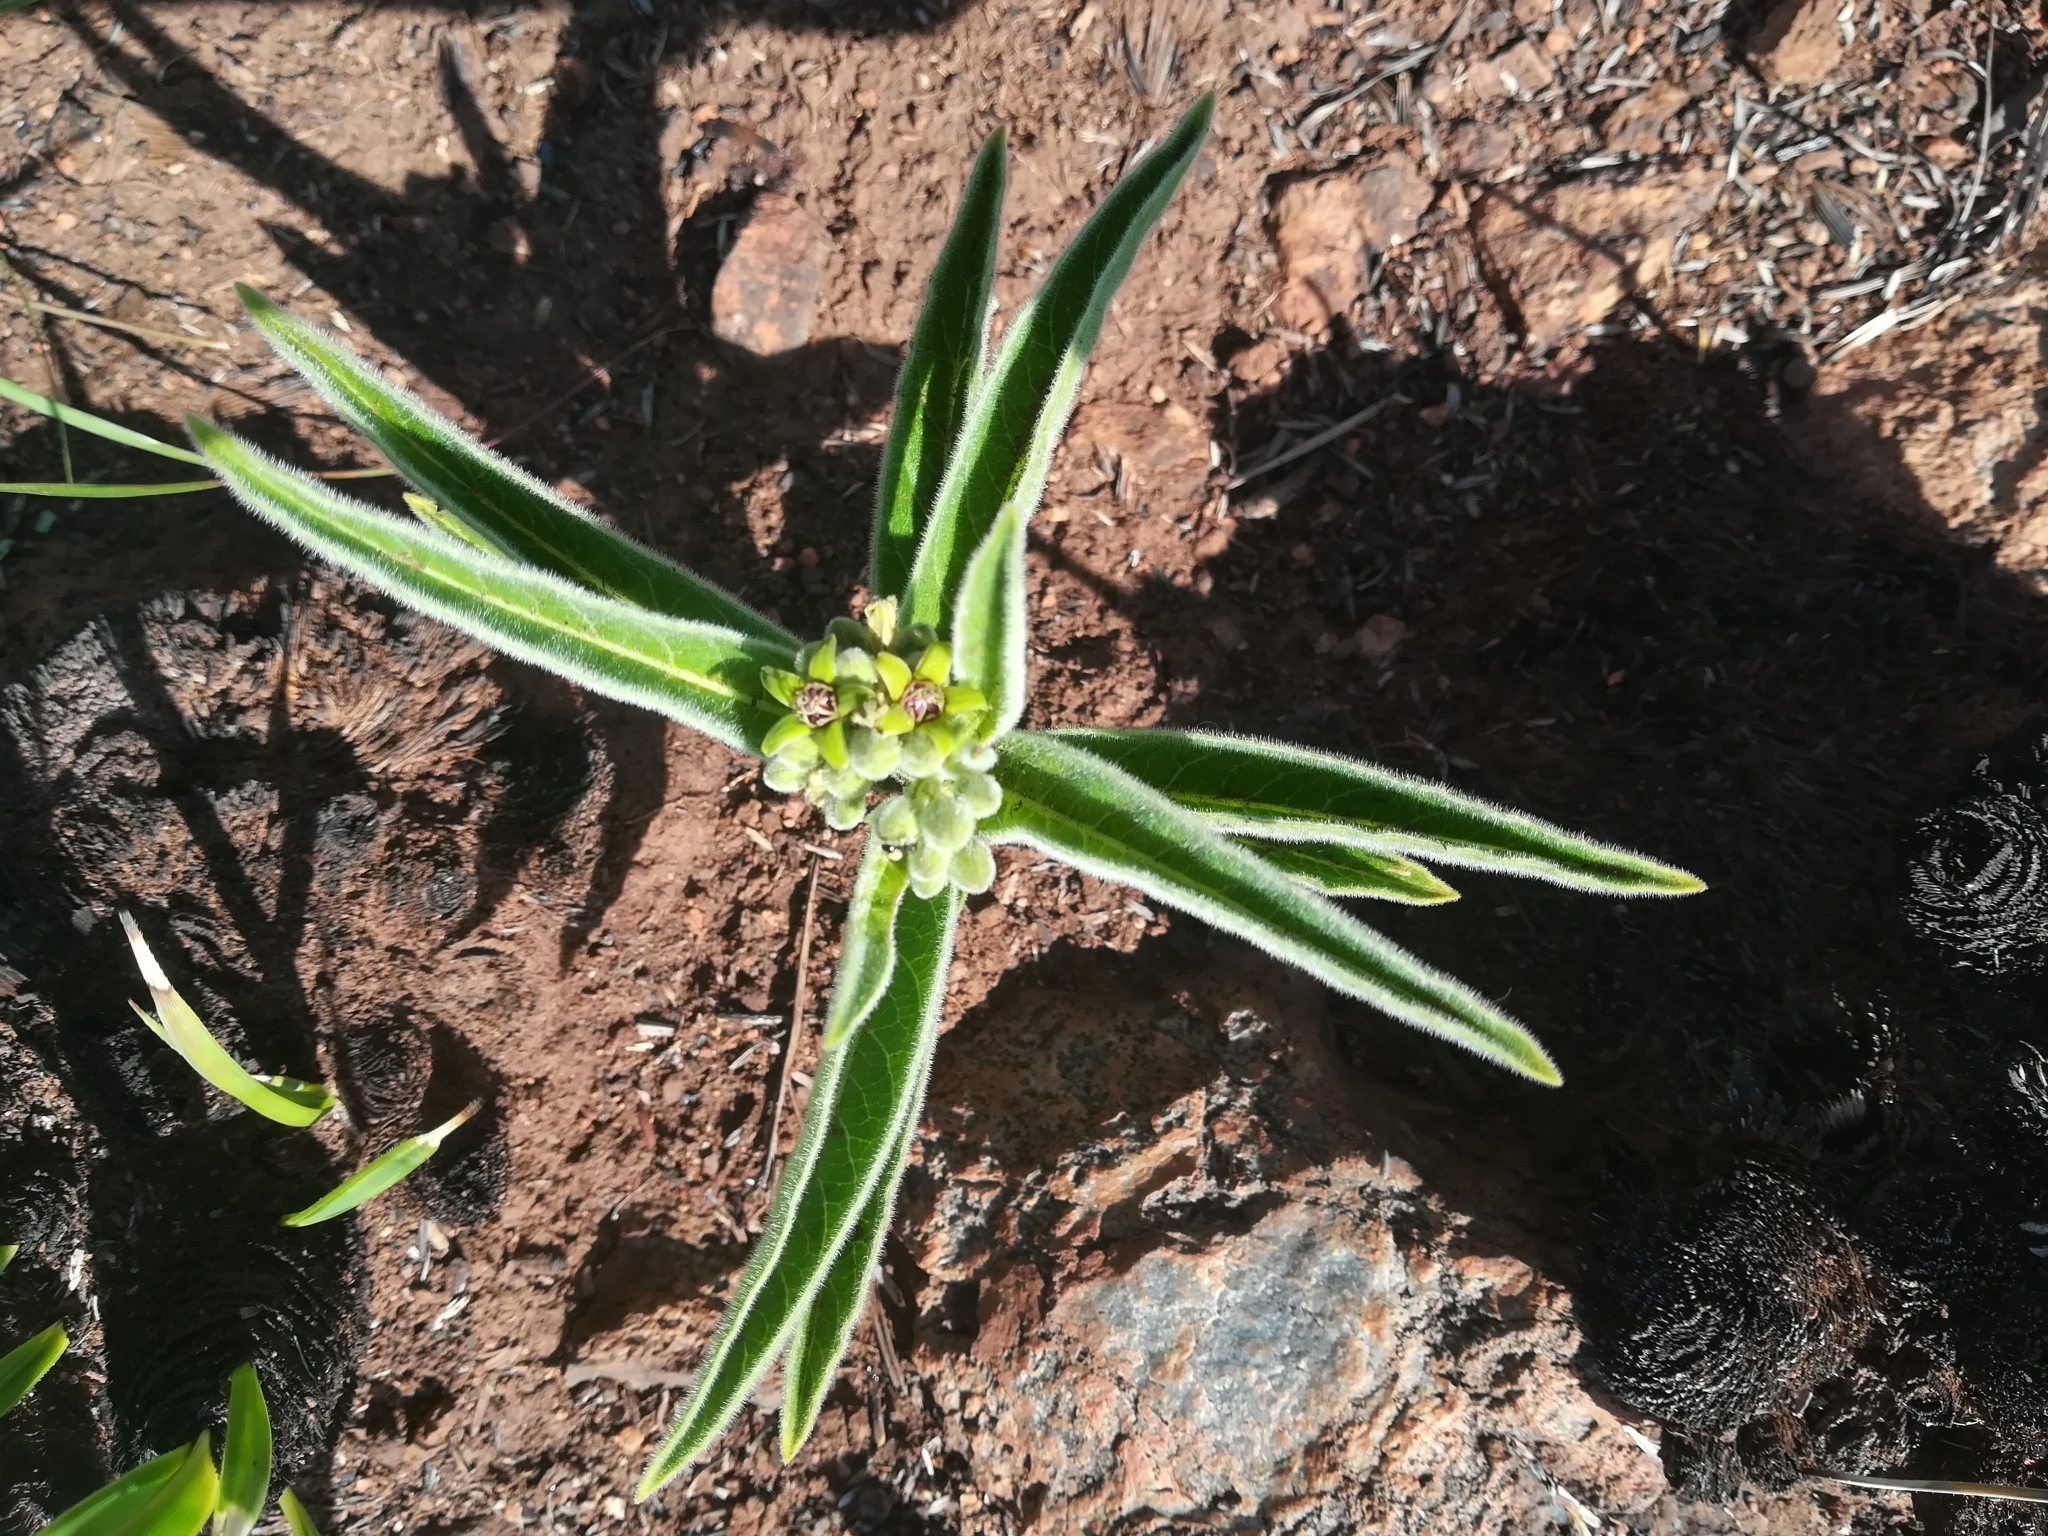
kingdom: Plantae
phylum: Tracheophyta
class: Magnoliopsida
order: Gentianales
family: Apocynaceae
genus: Raphionacme
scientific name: Raphionacme galpinii
